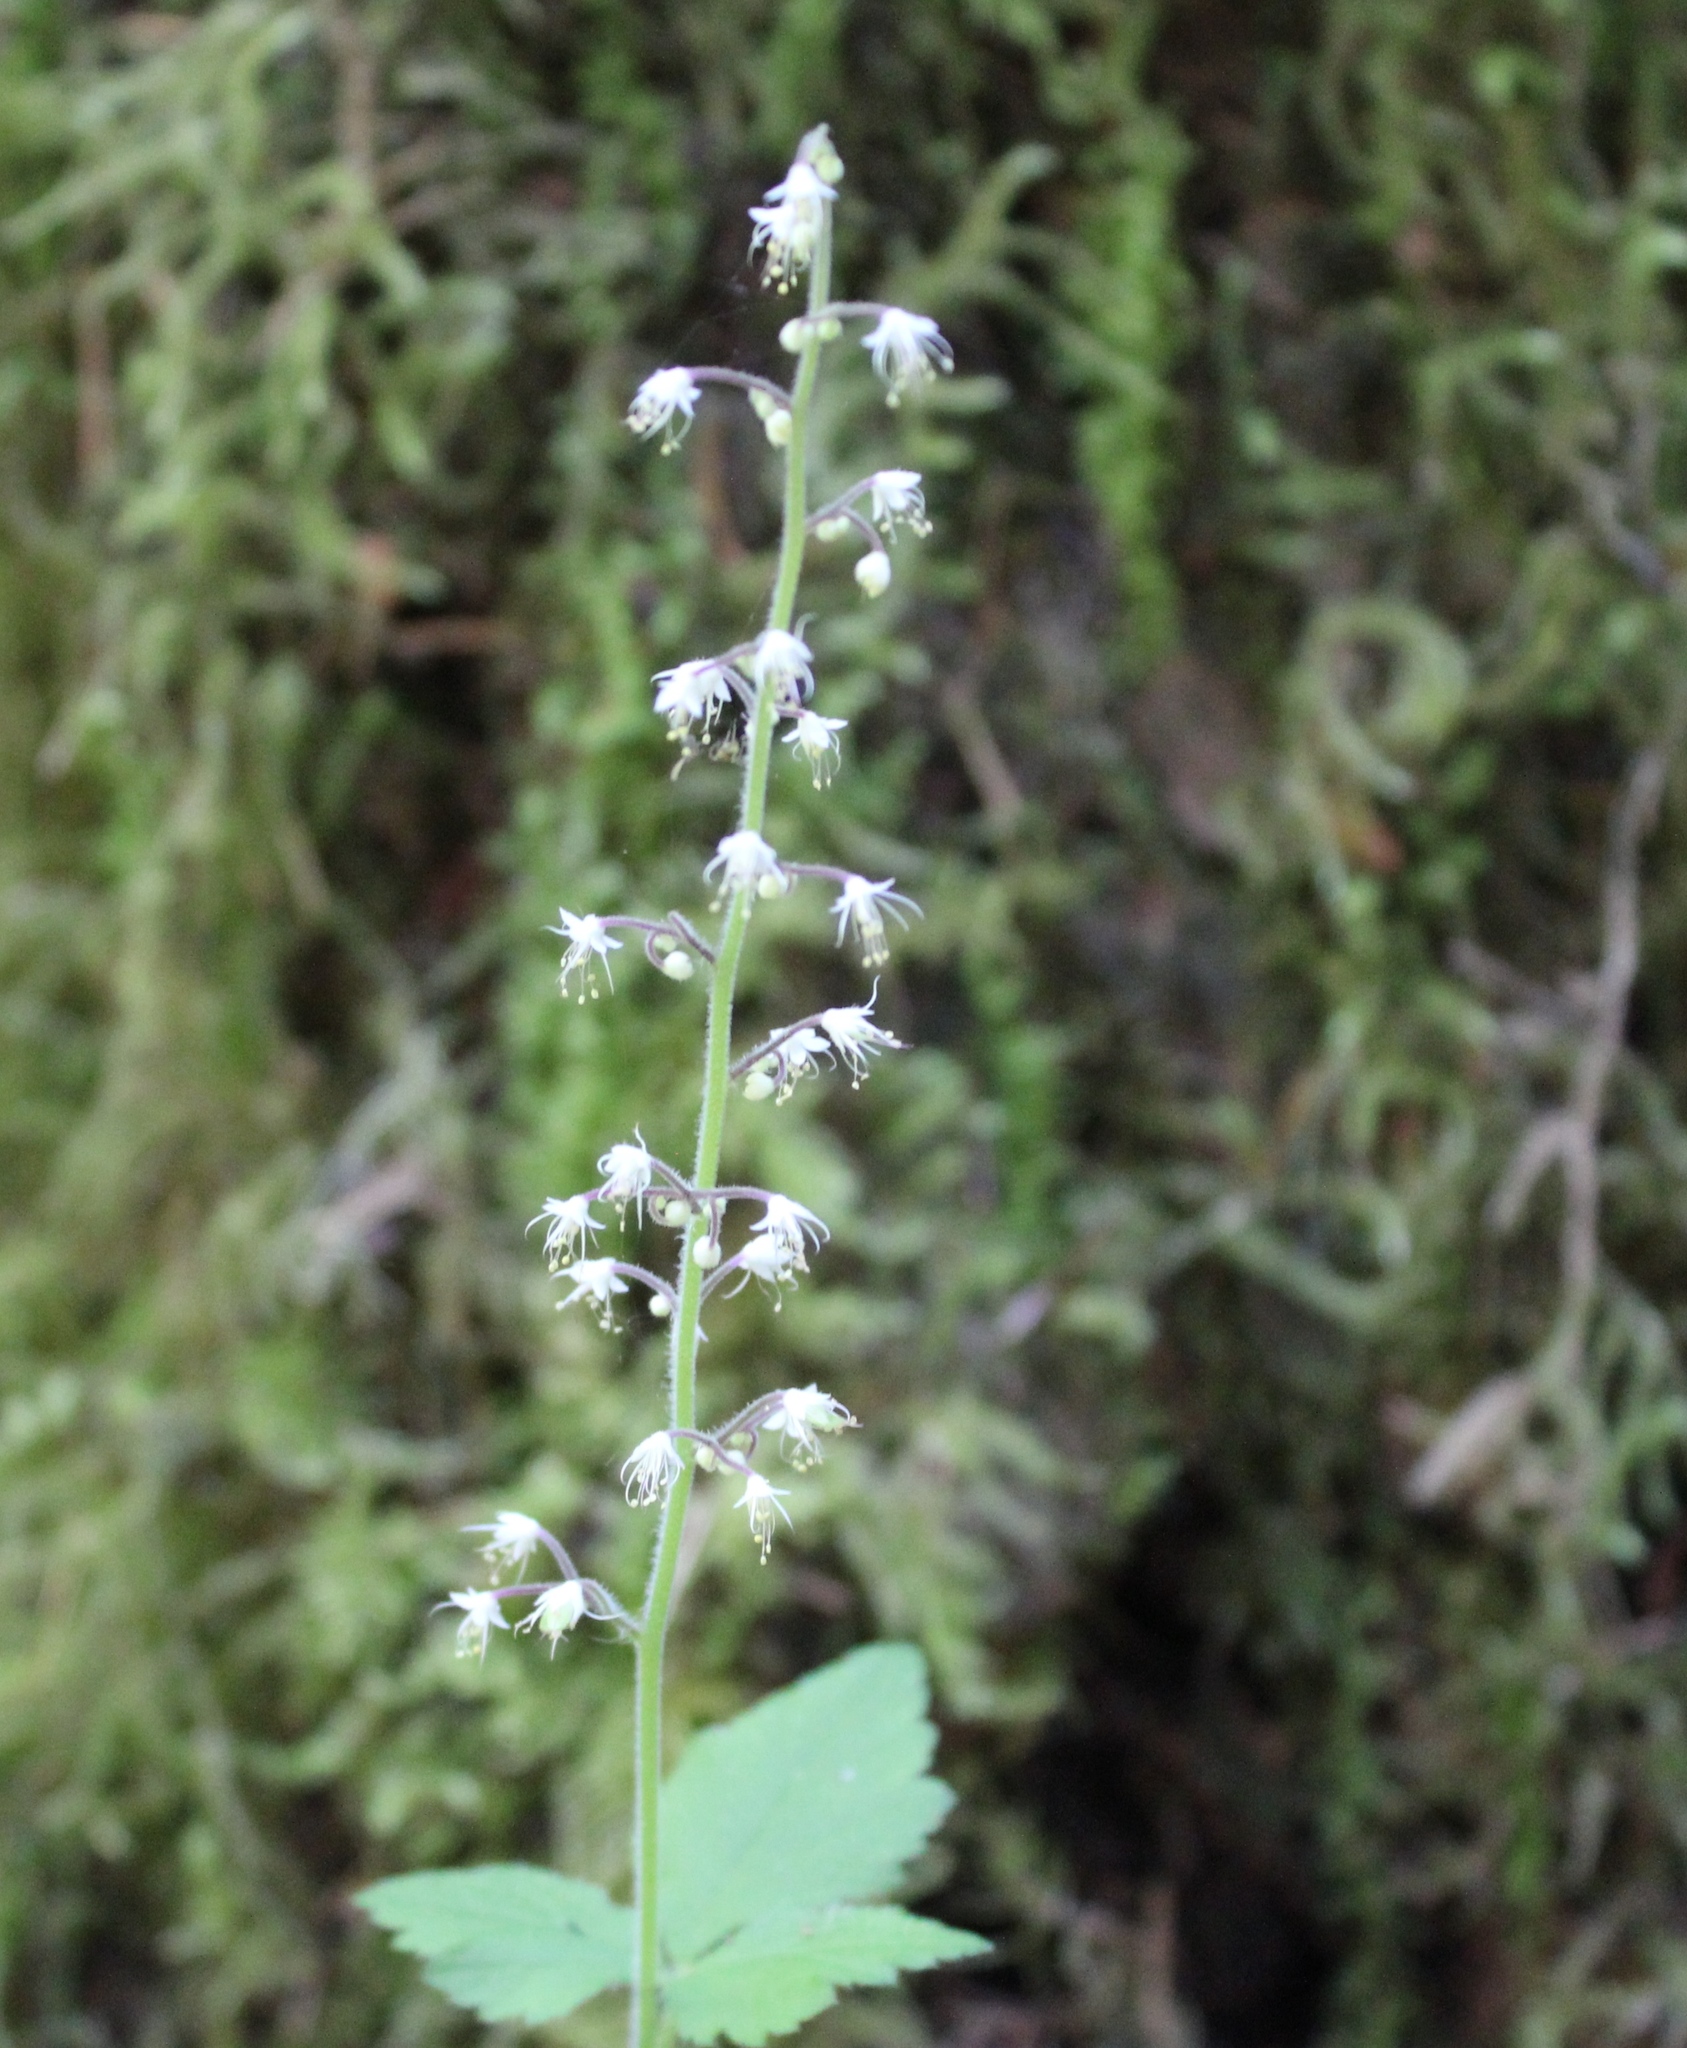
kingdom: Plantae
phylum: Tracheophyta
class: Magnoliopsida
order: Saxifragales
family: Saxifragaceae
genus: Tiarella
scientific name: Tiarella trifoliata
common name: Sugar-scoop
